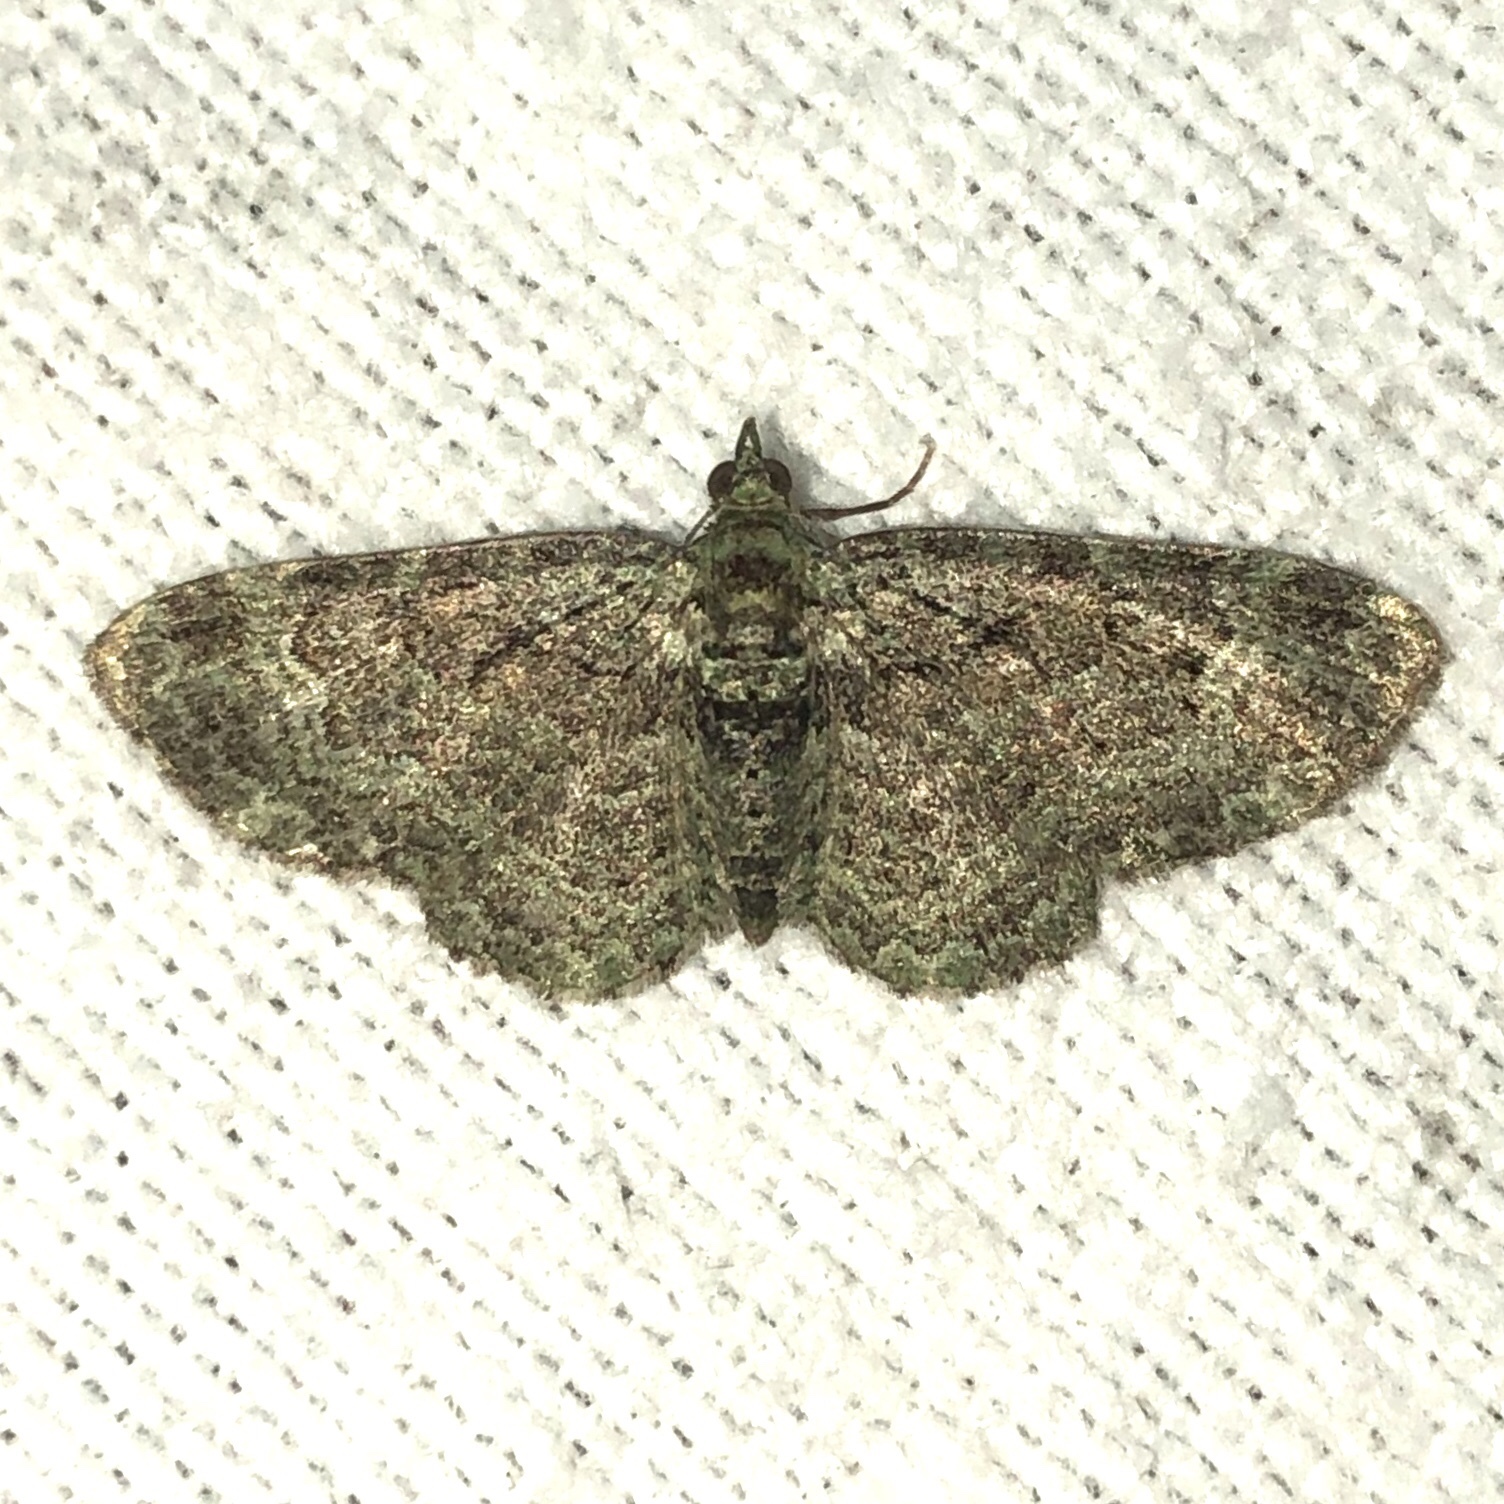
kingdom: Animalia
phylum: Arthropoda
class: Insecta
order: Lepidoptera
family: Geometridae
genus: Pasiphila
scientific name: Pasiphila rectangulata
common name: Green pug
